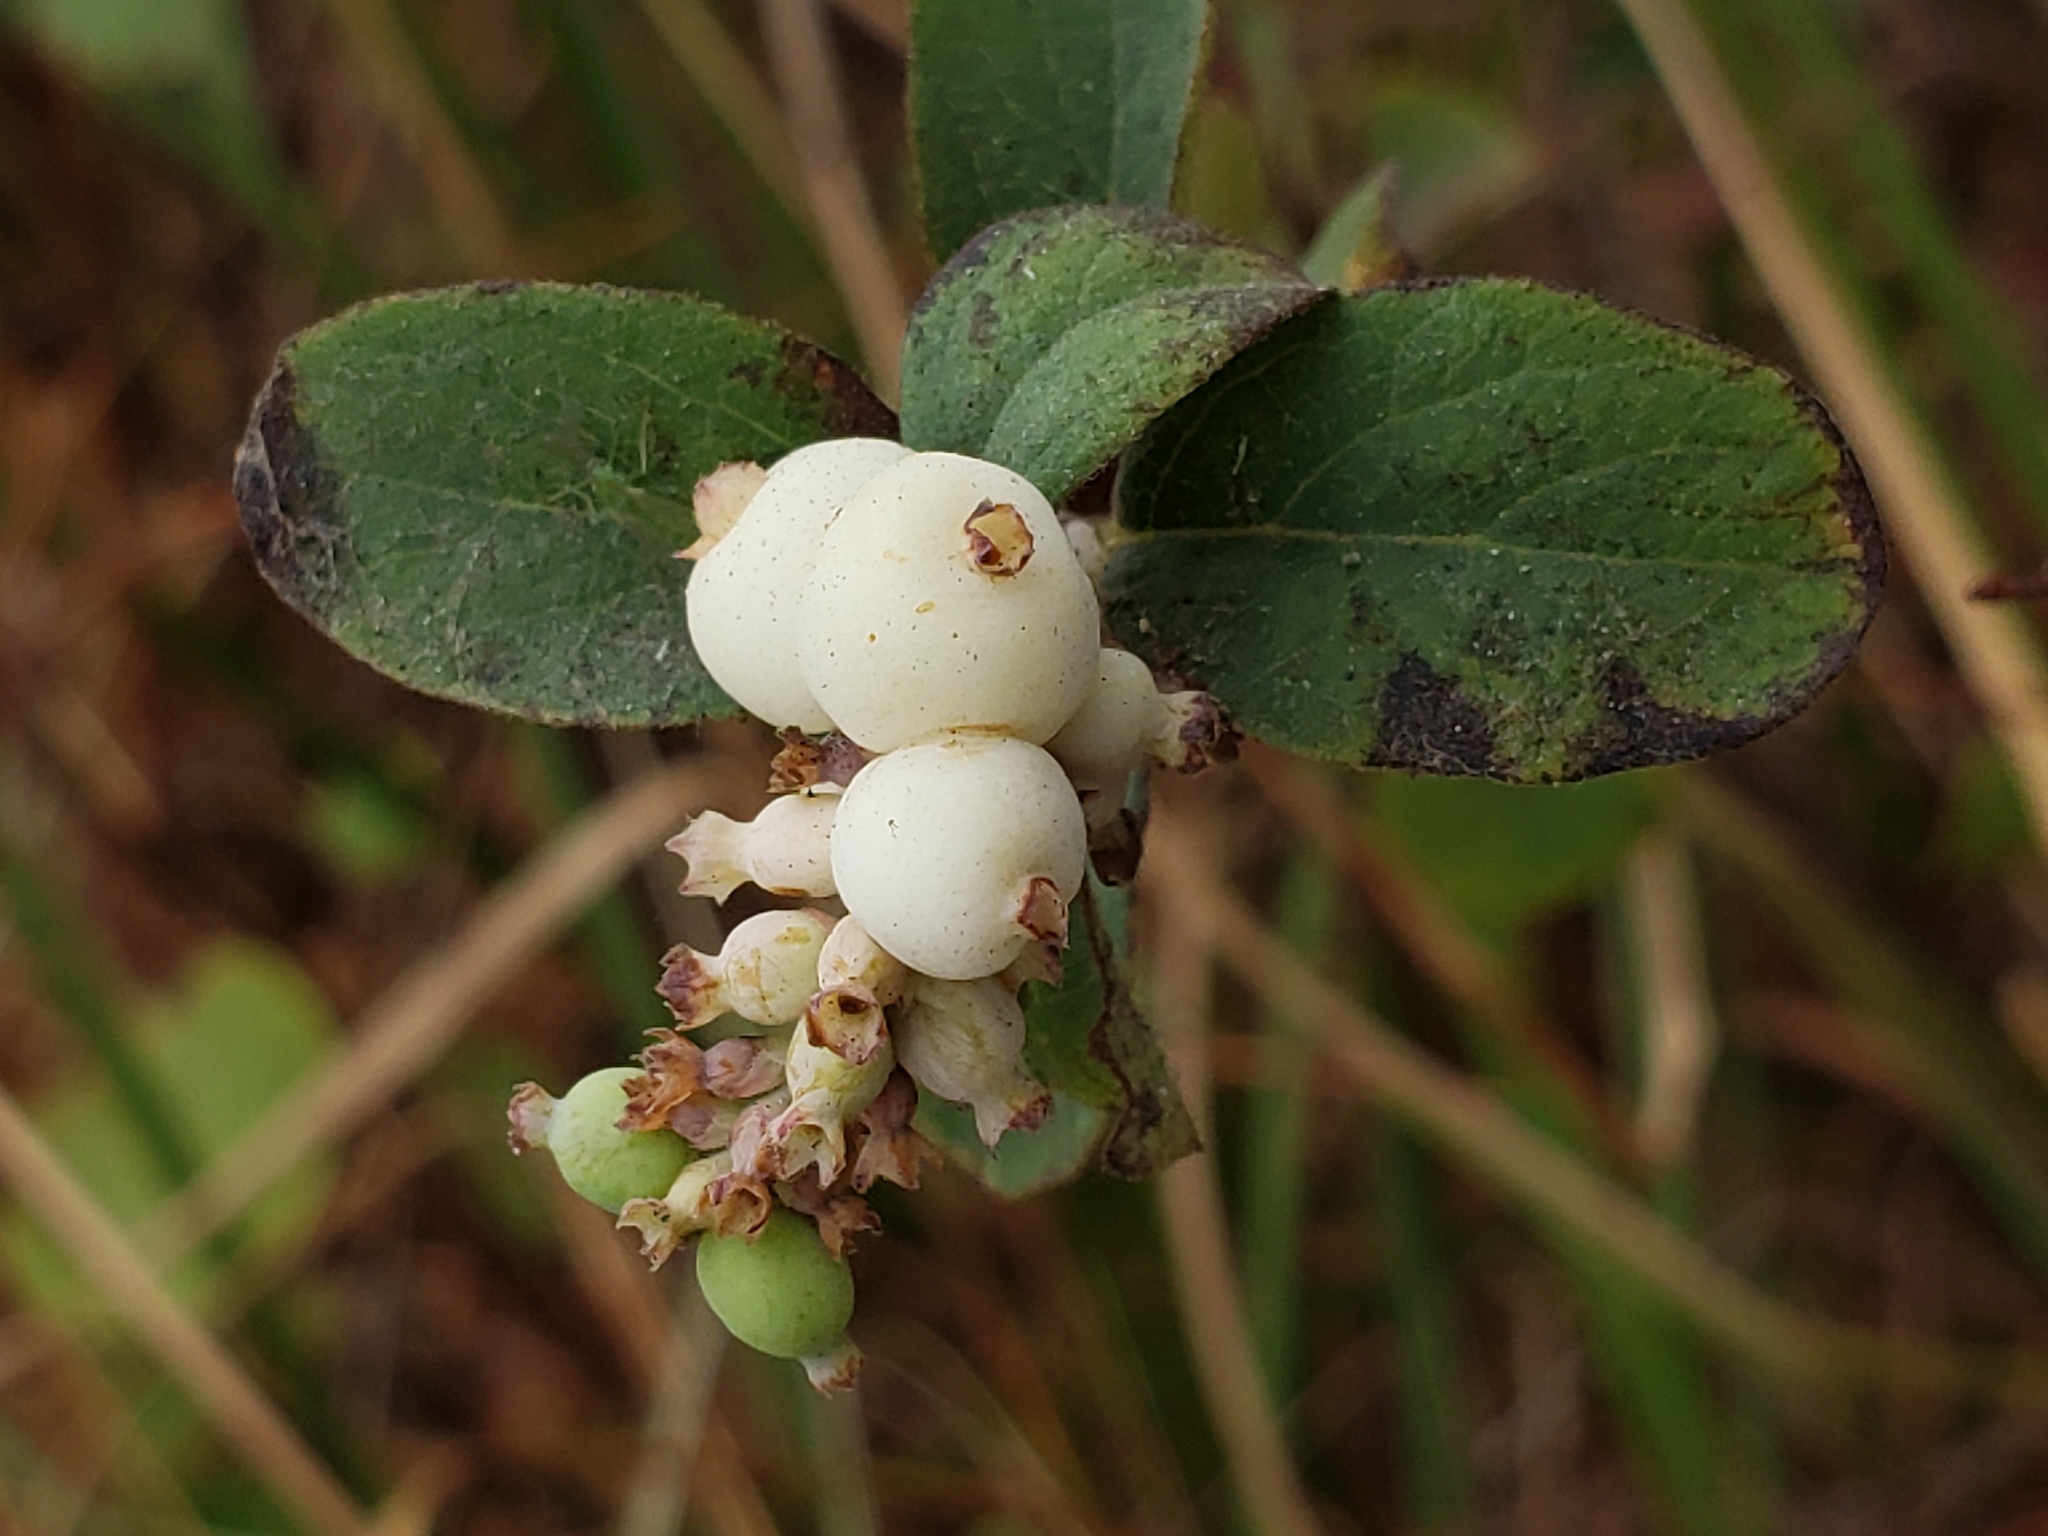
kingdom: Plantae
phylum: Tracheophyta
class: Magnoliopsida
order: Dipsacales
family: Caprifoliaceae
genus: Symphoricarpos
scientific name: Symphoricarpos albus
